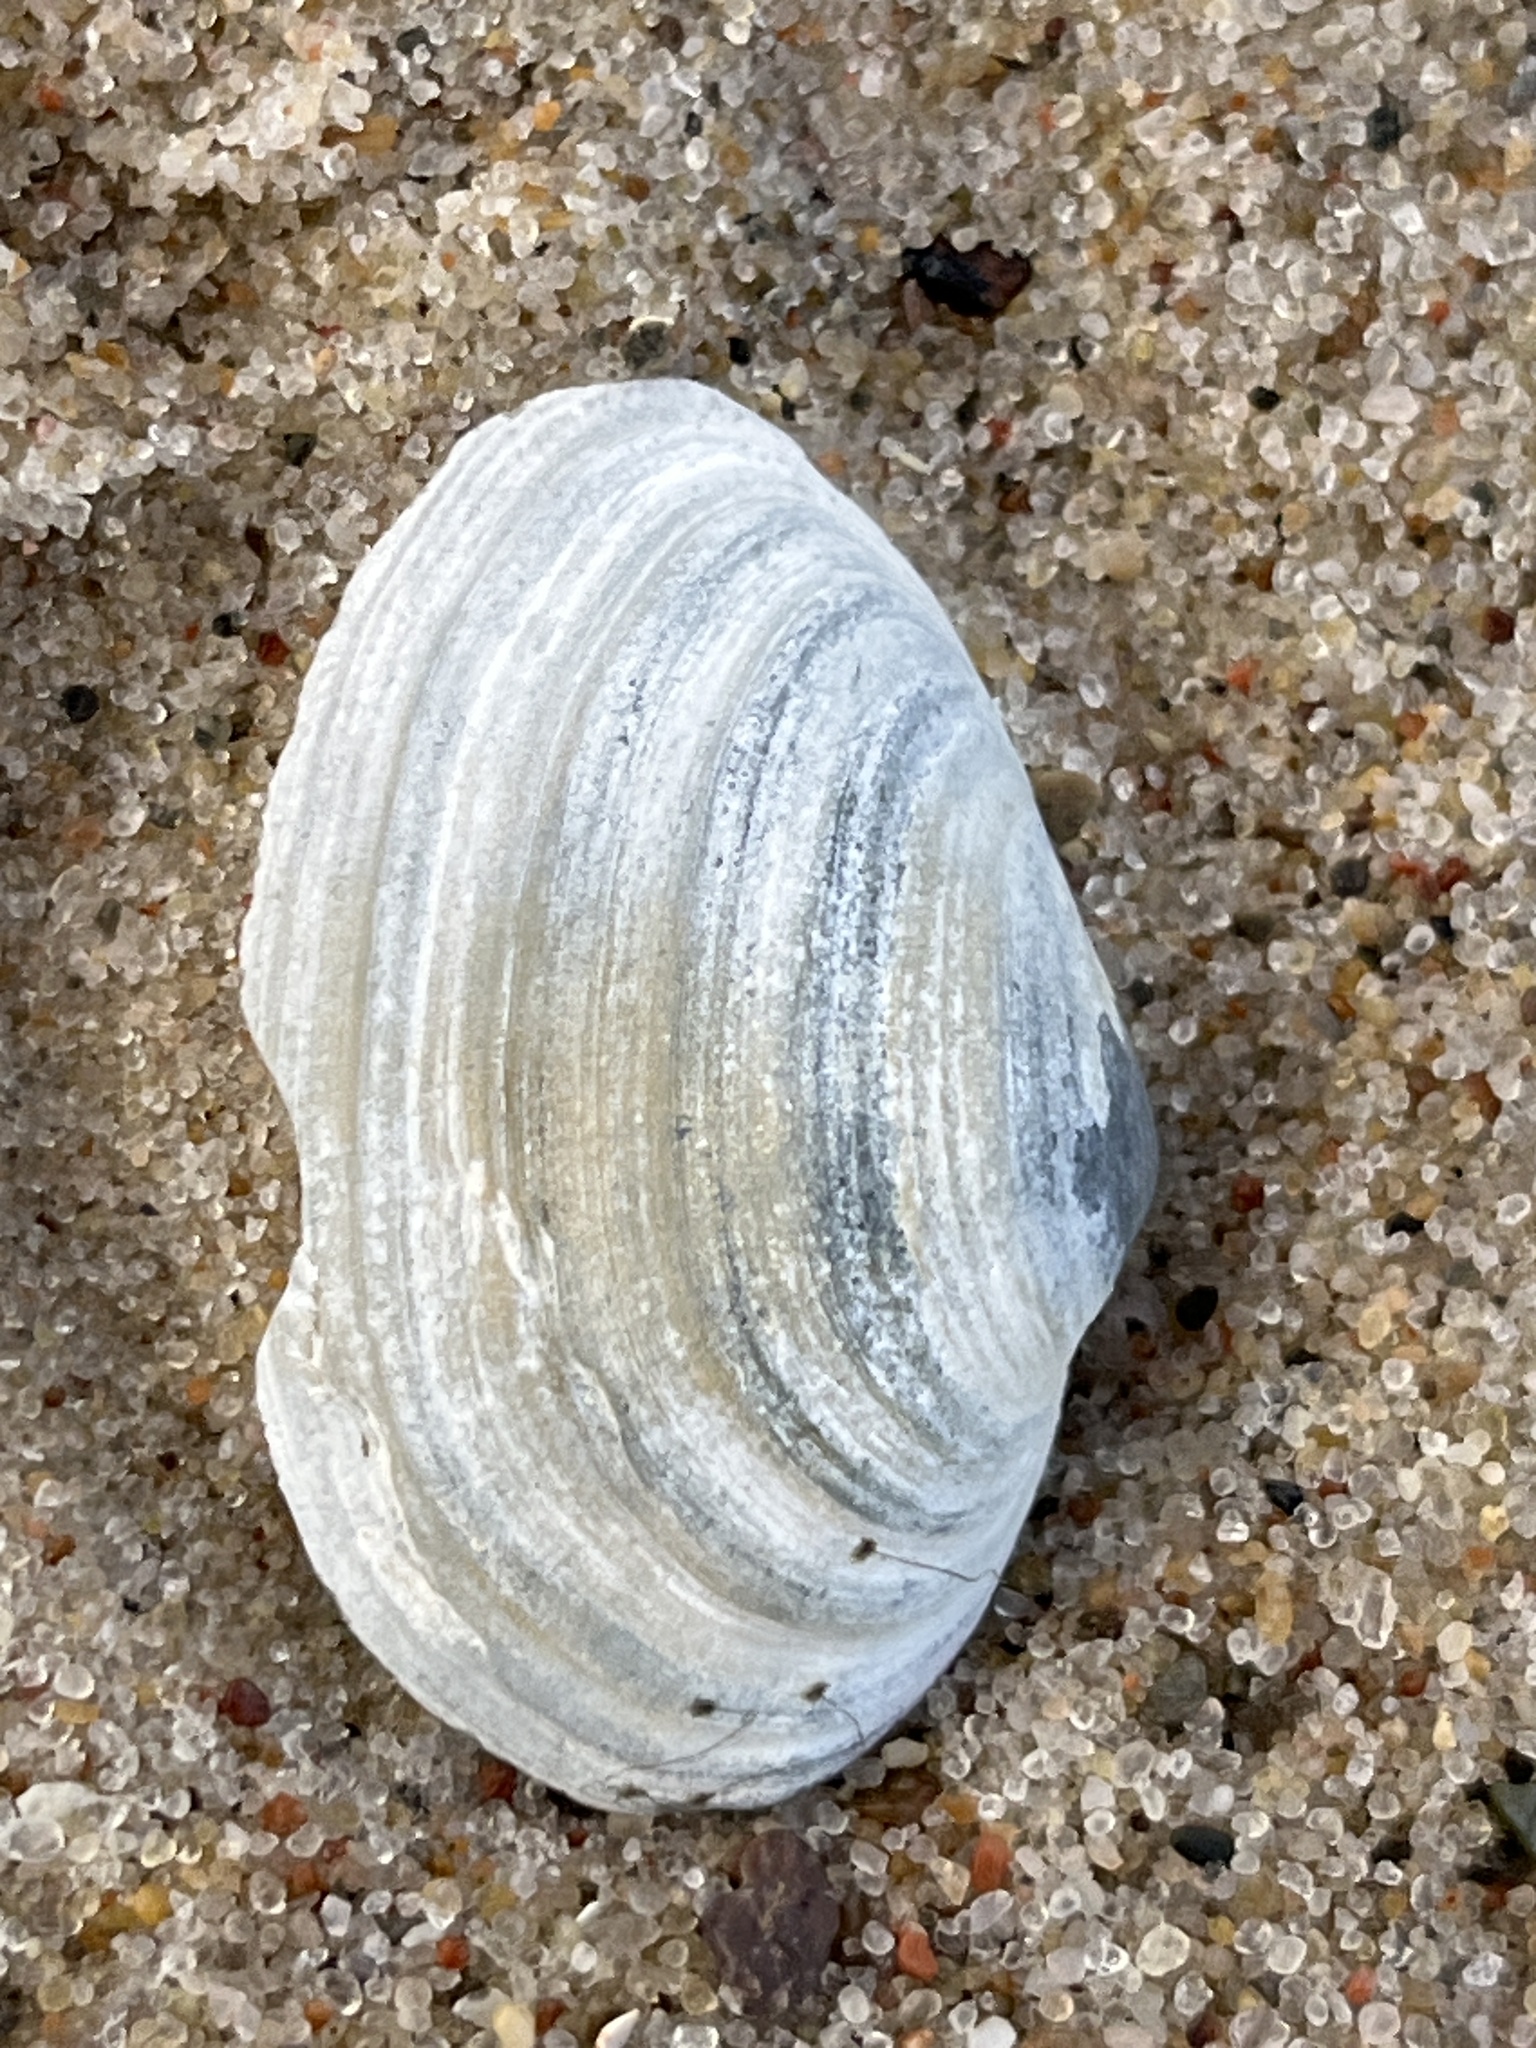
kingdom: Animalia
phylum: Mollusca
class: Bivalvia
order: Myida
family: Myidae
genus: Mya
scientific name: Mya arenaria
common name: Soft-shelled clam
